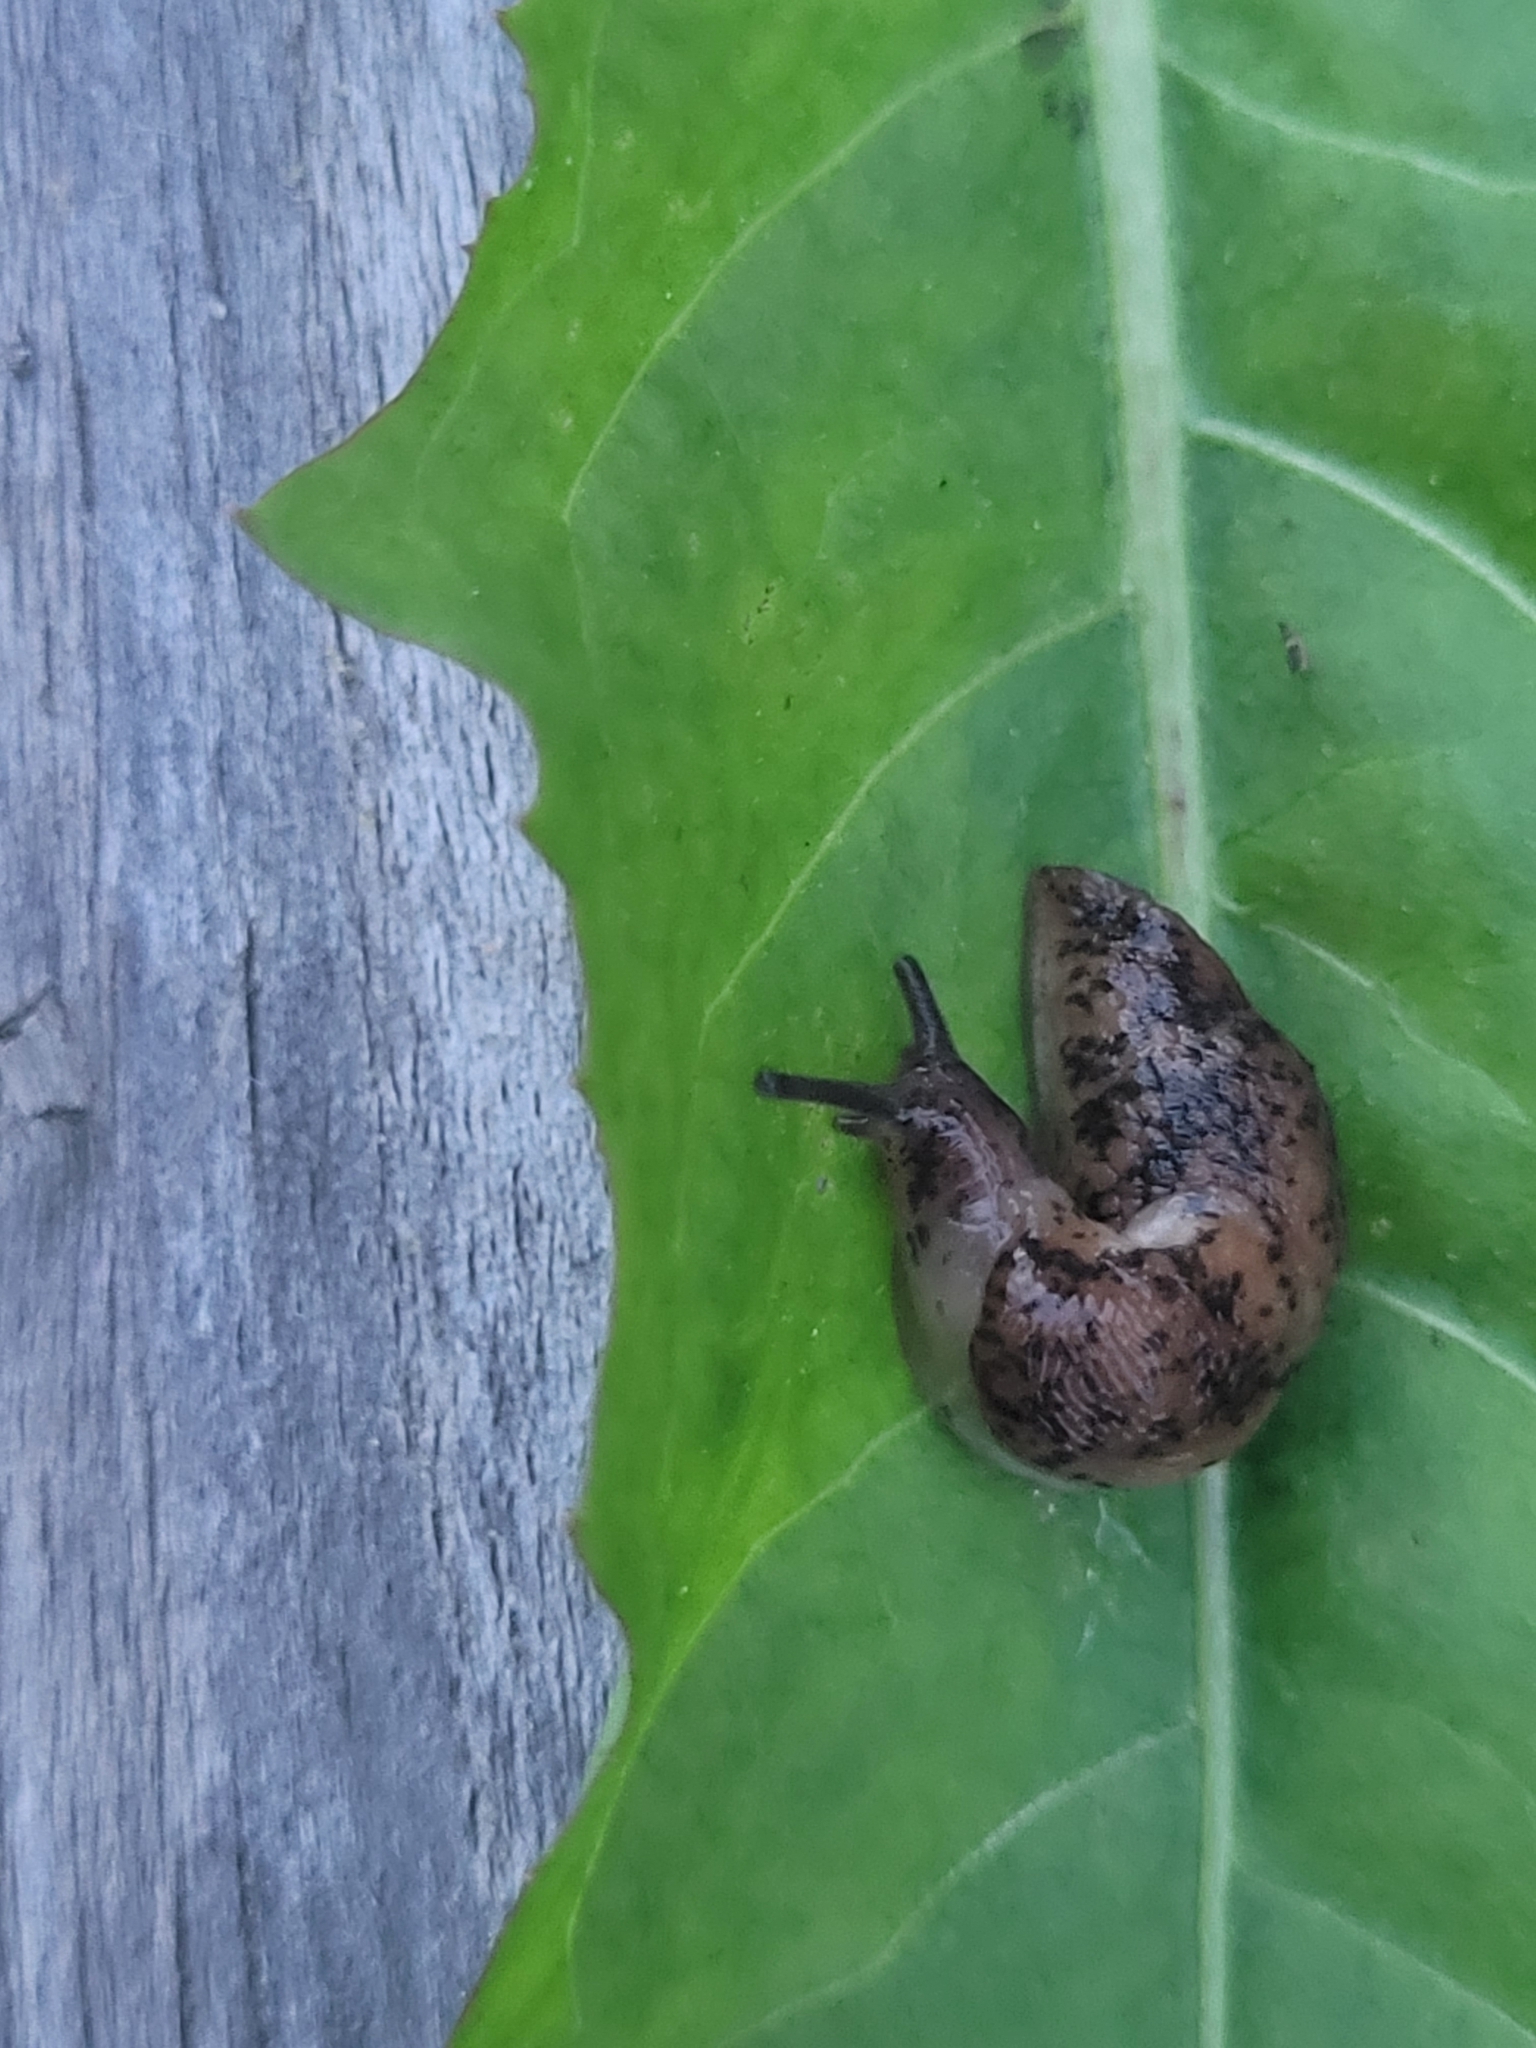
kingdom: Animalia
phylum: Mollusca
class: Gastropoda
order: Stylommatophora
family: Agriolimacidae
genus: Deroceras
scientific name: Deroceras reticulatum
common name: Gray field slug
